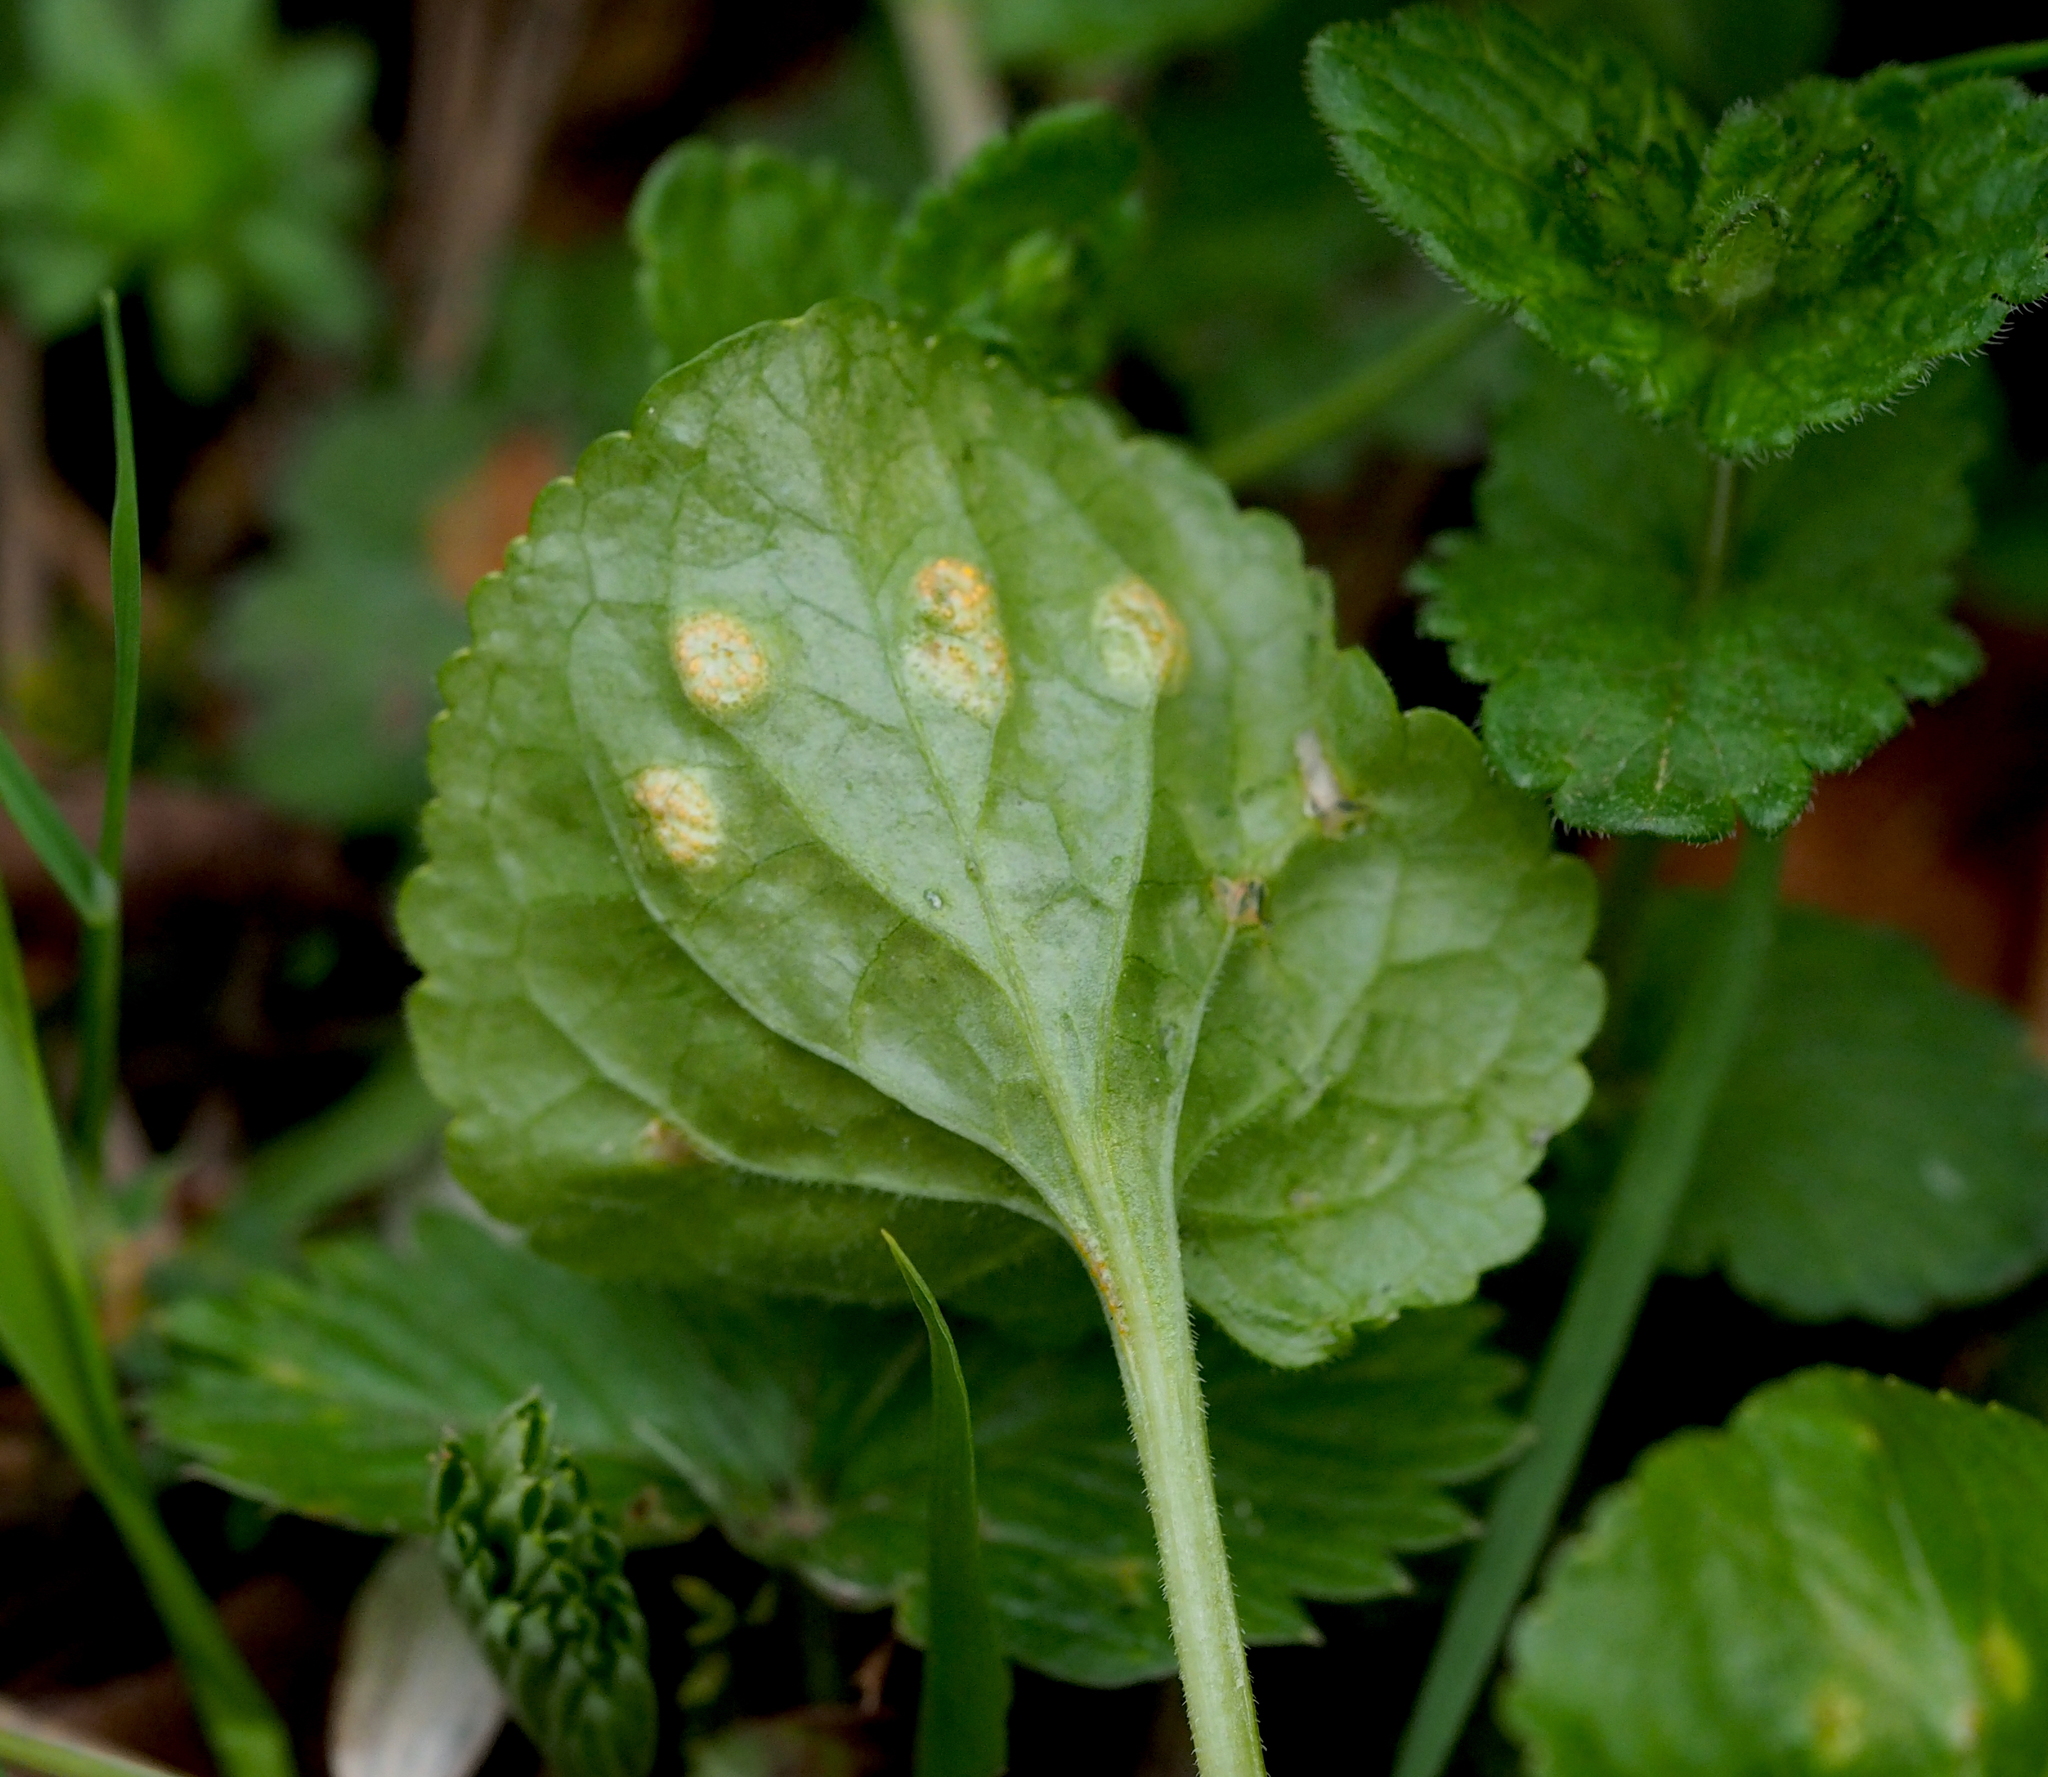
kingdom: Fungi
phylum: Basidiomycota
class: Pucciniomycetes
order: Pucciniales
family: Pucciniaceae
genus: Puccinia
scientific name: Puccinia violae
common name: Violet rust
